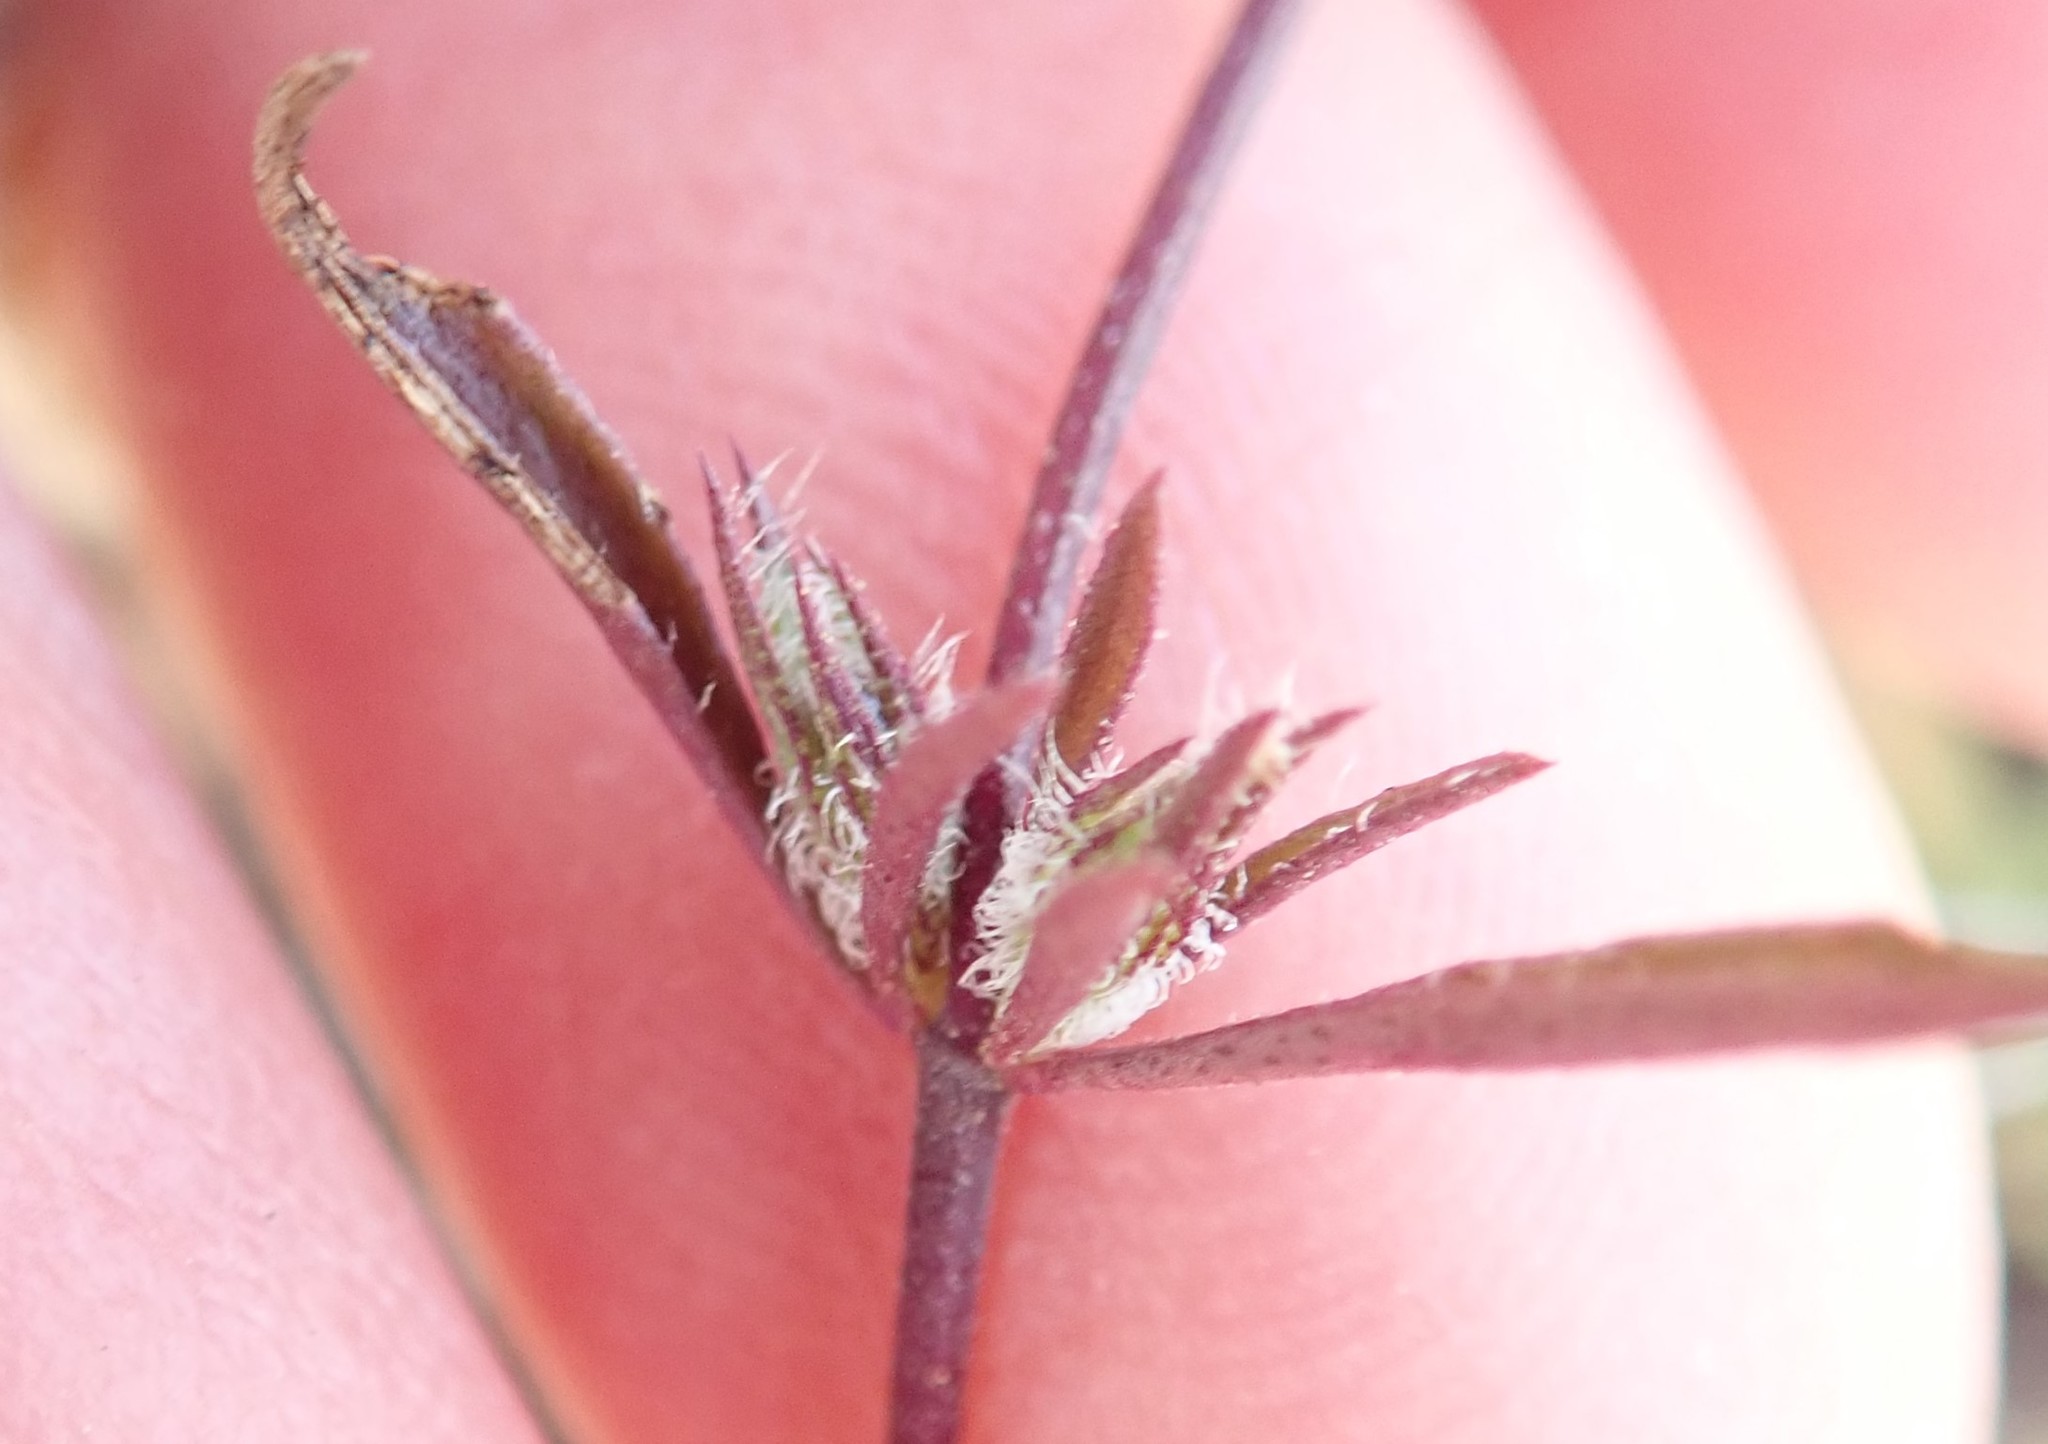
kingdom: Plantae
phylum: Tracheophyta
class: Magnoliopsida
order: Lamiales
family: Lamiaceae
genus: Pogogyne
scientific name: Pogogyne abramsii
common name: San diego mesa-mint
